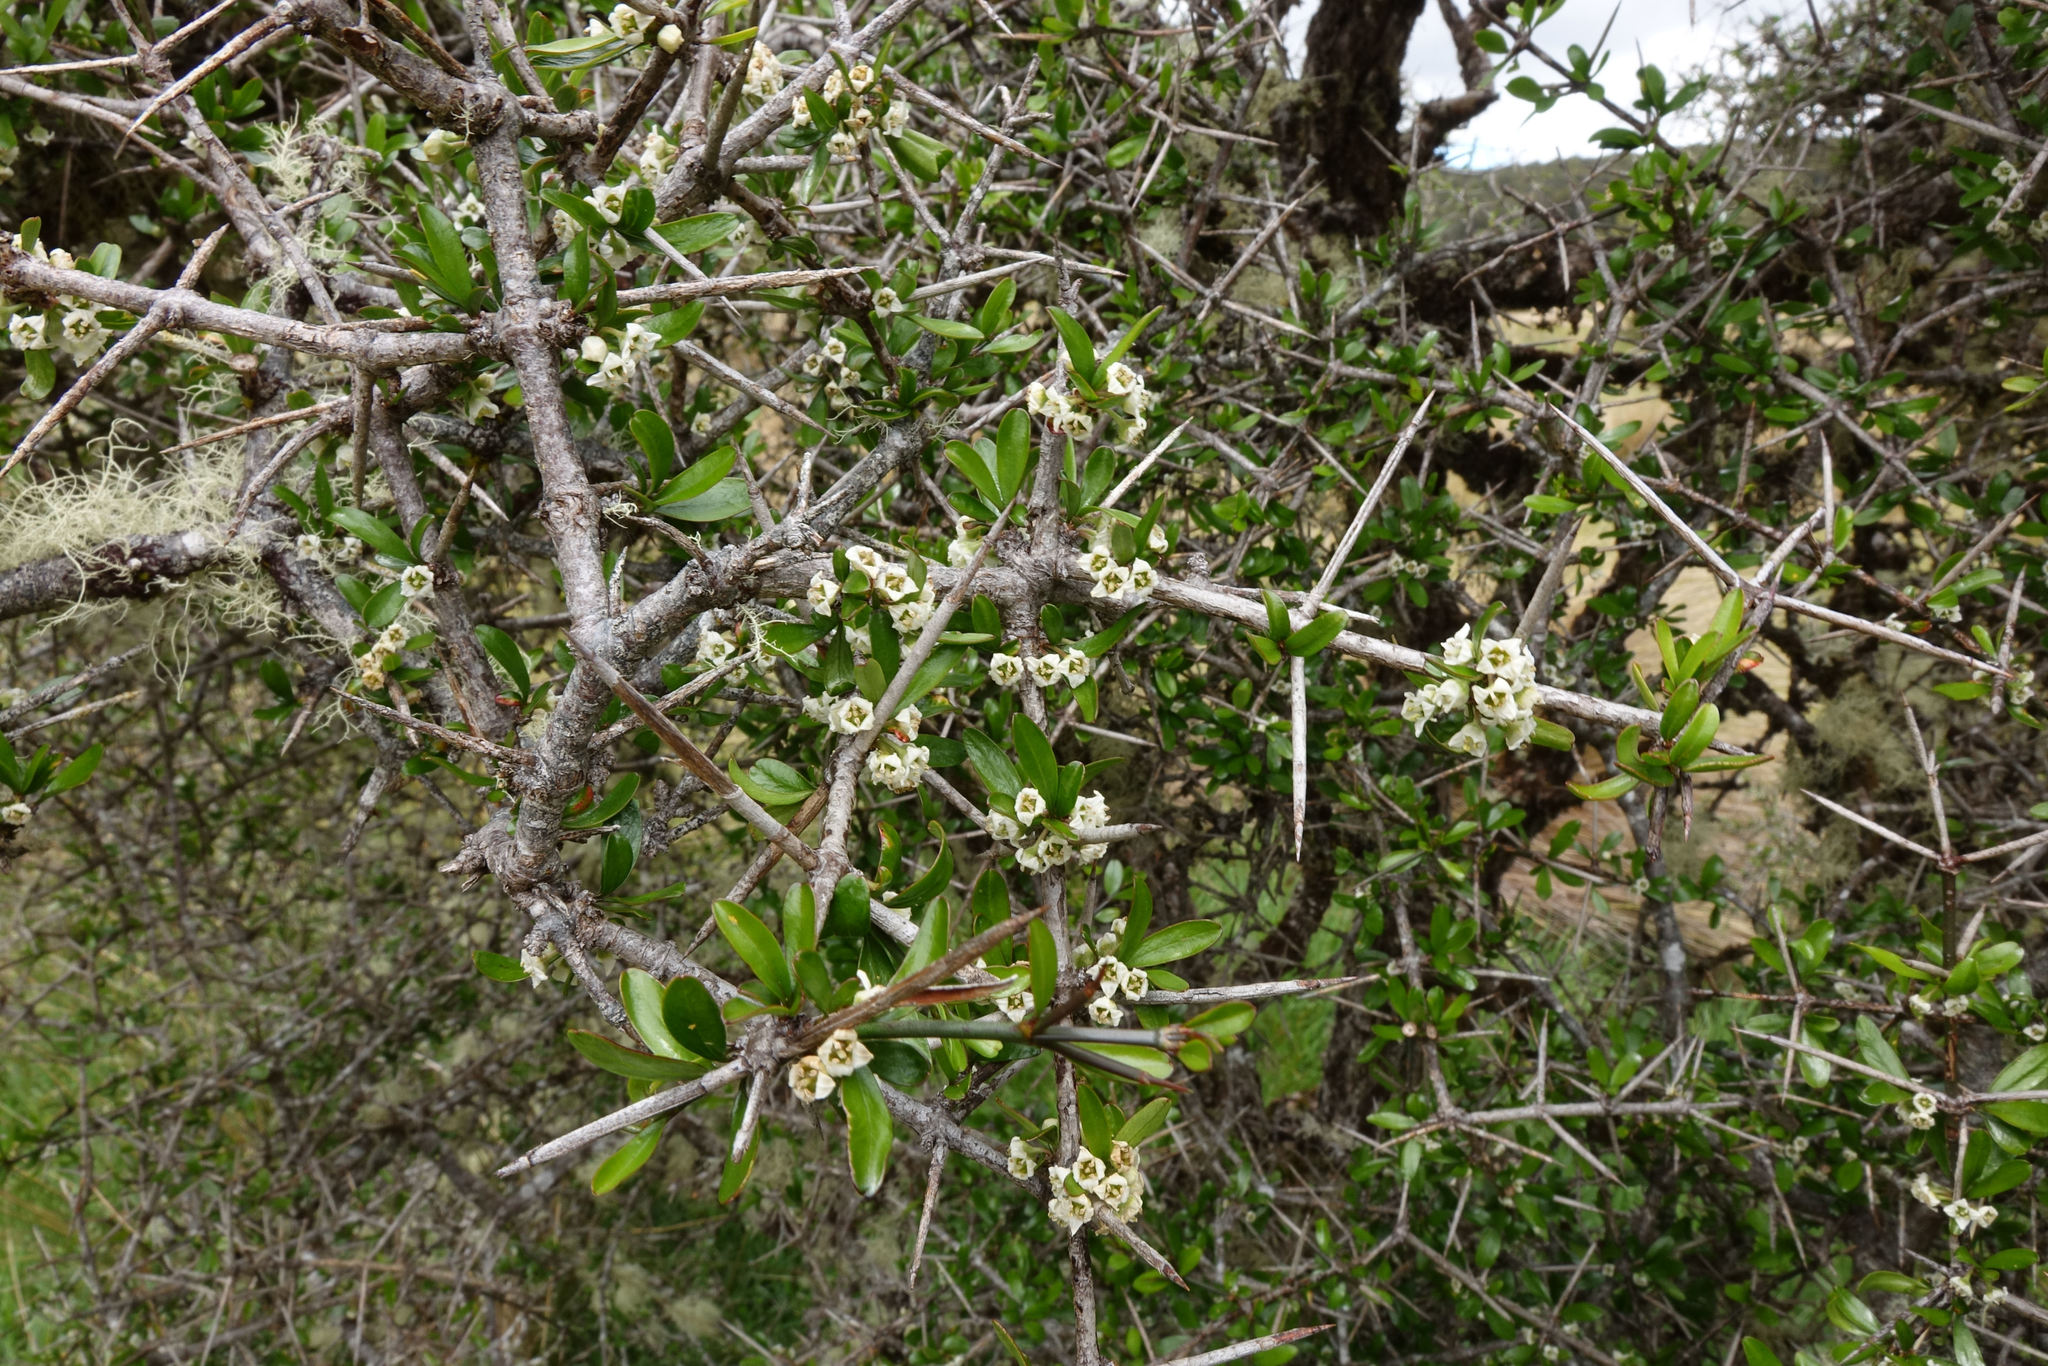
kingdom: Plantae
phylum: Tracheophyta
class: Magnoliopsida
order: Rosales
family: Rhamnaceae
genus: Discaria
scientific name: Discaria toumatou
